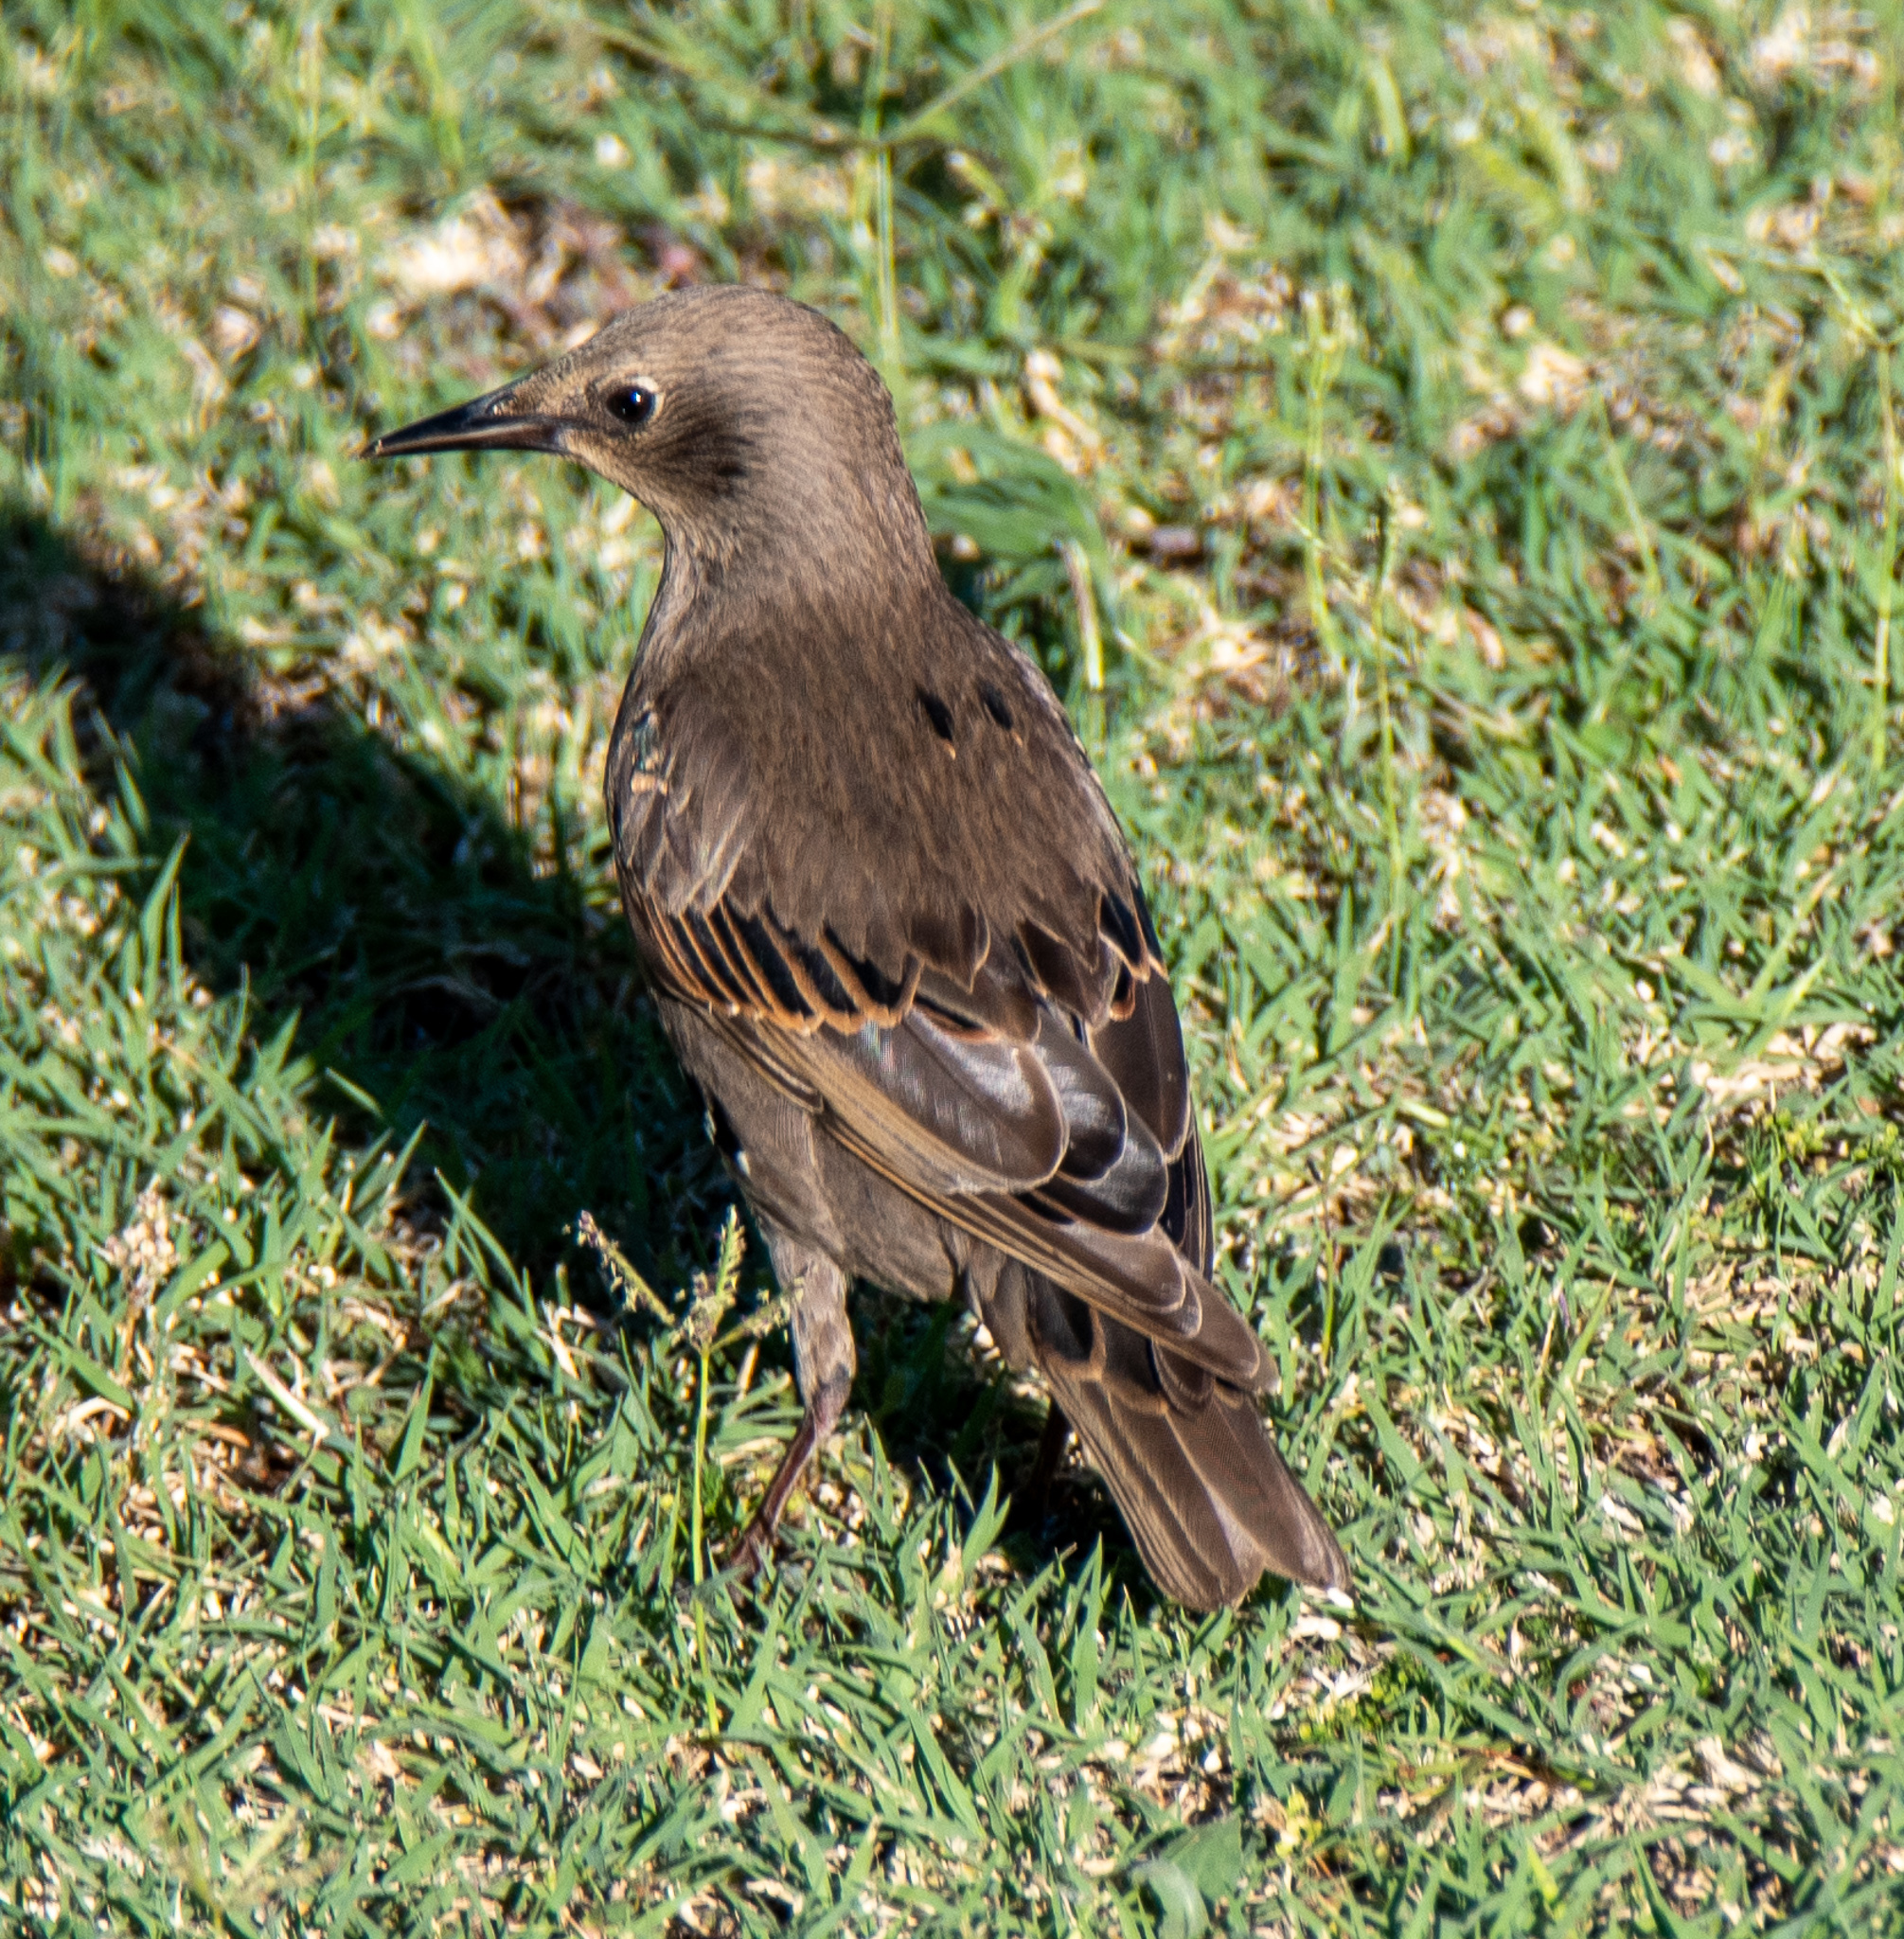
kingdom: Animalia
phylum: Chordata
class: Aves
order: Passeriformes
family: Sturnidae
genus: Sturnus
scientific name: Sturnus vulgaris
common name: Common starling
